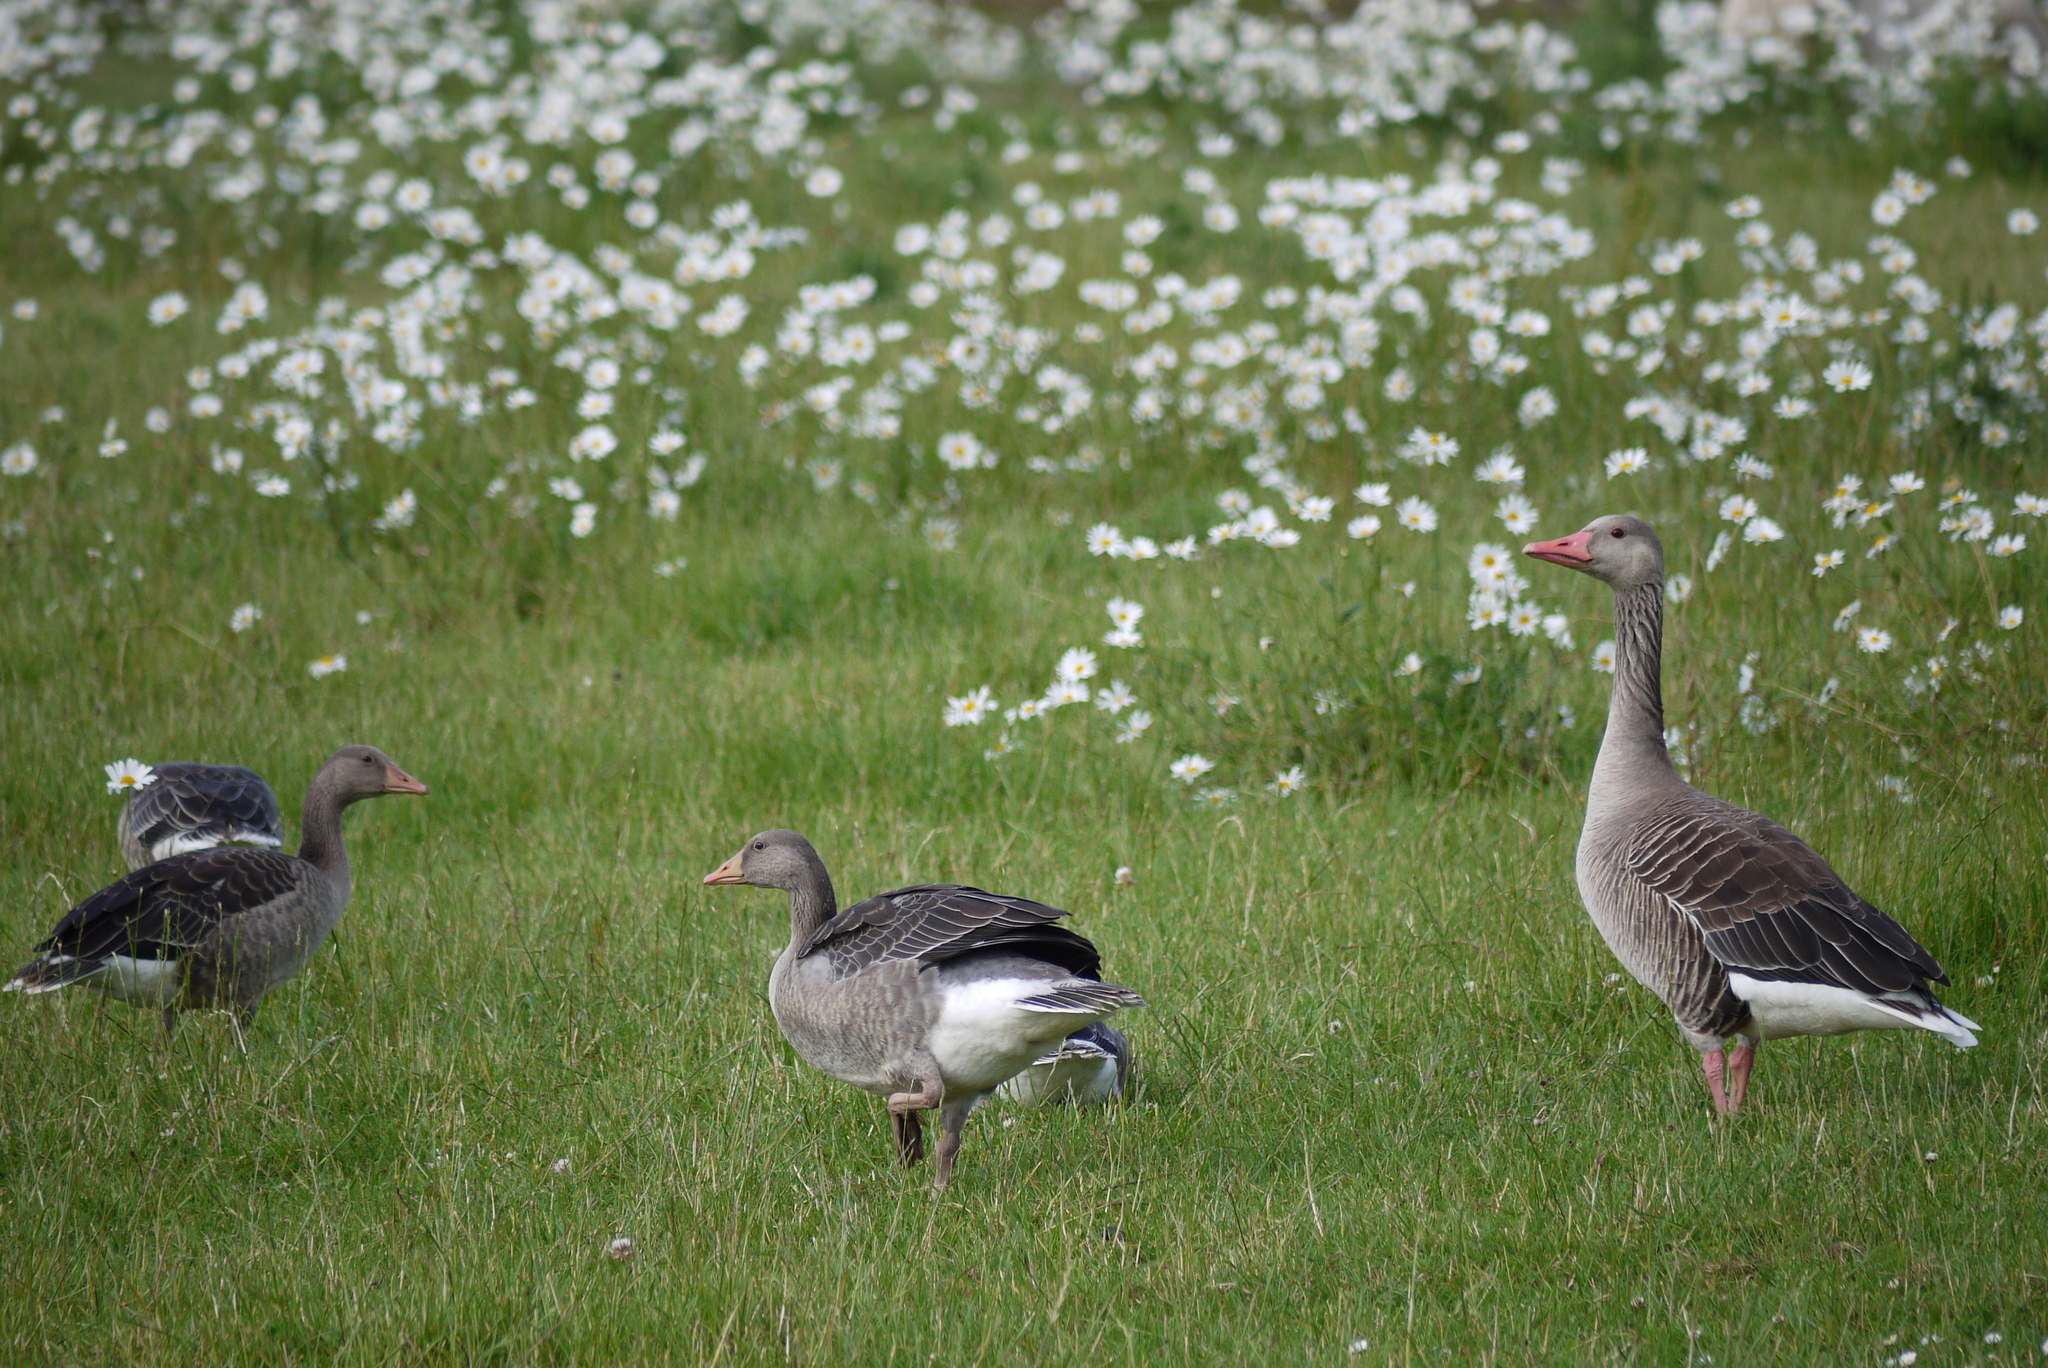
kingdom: Animalia
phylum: Chordata
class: Aves
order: Anseriformes
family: Anatidae
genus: Anser
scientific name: Anser anser
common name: Greylag goose
